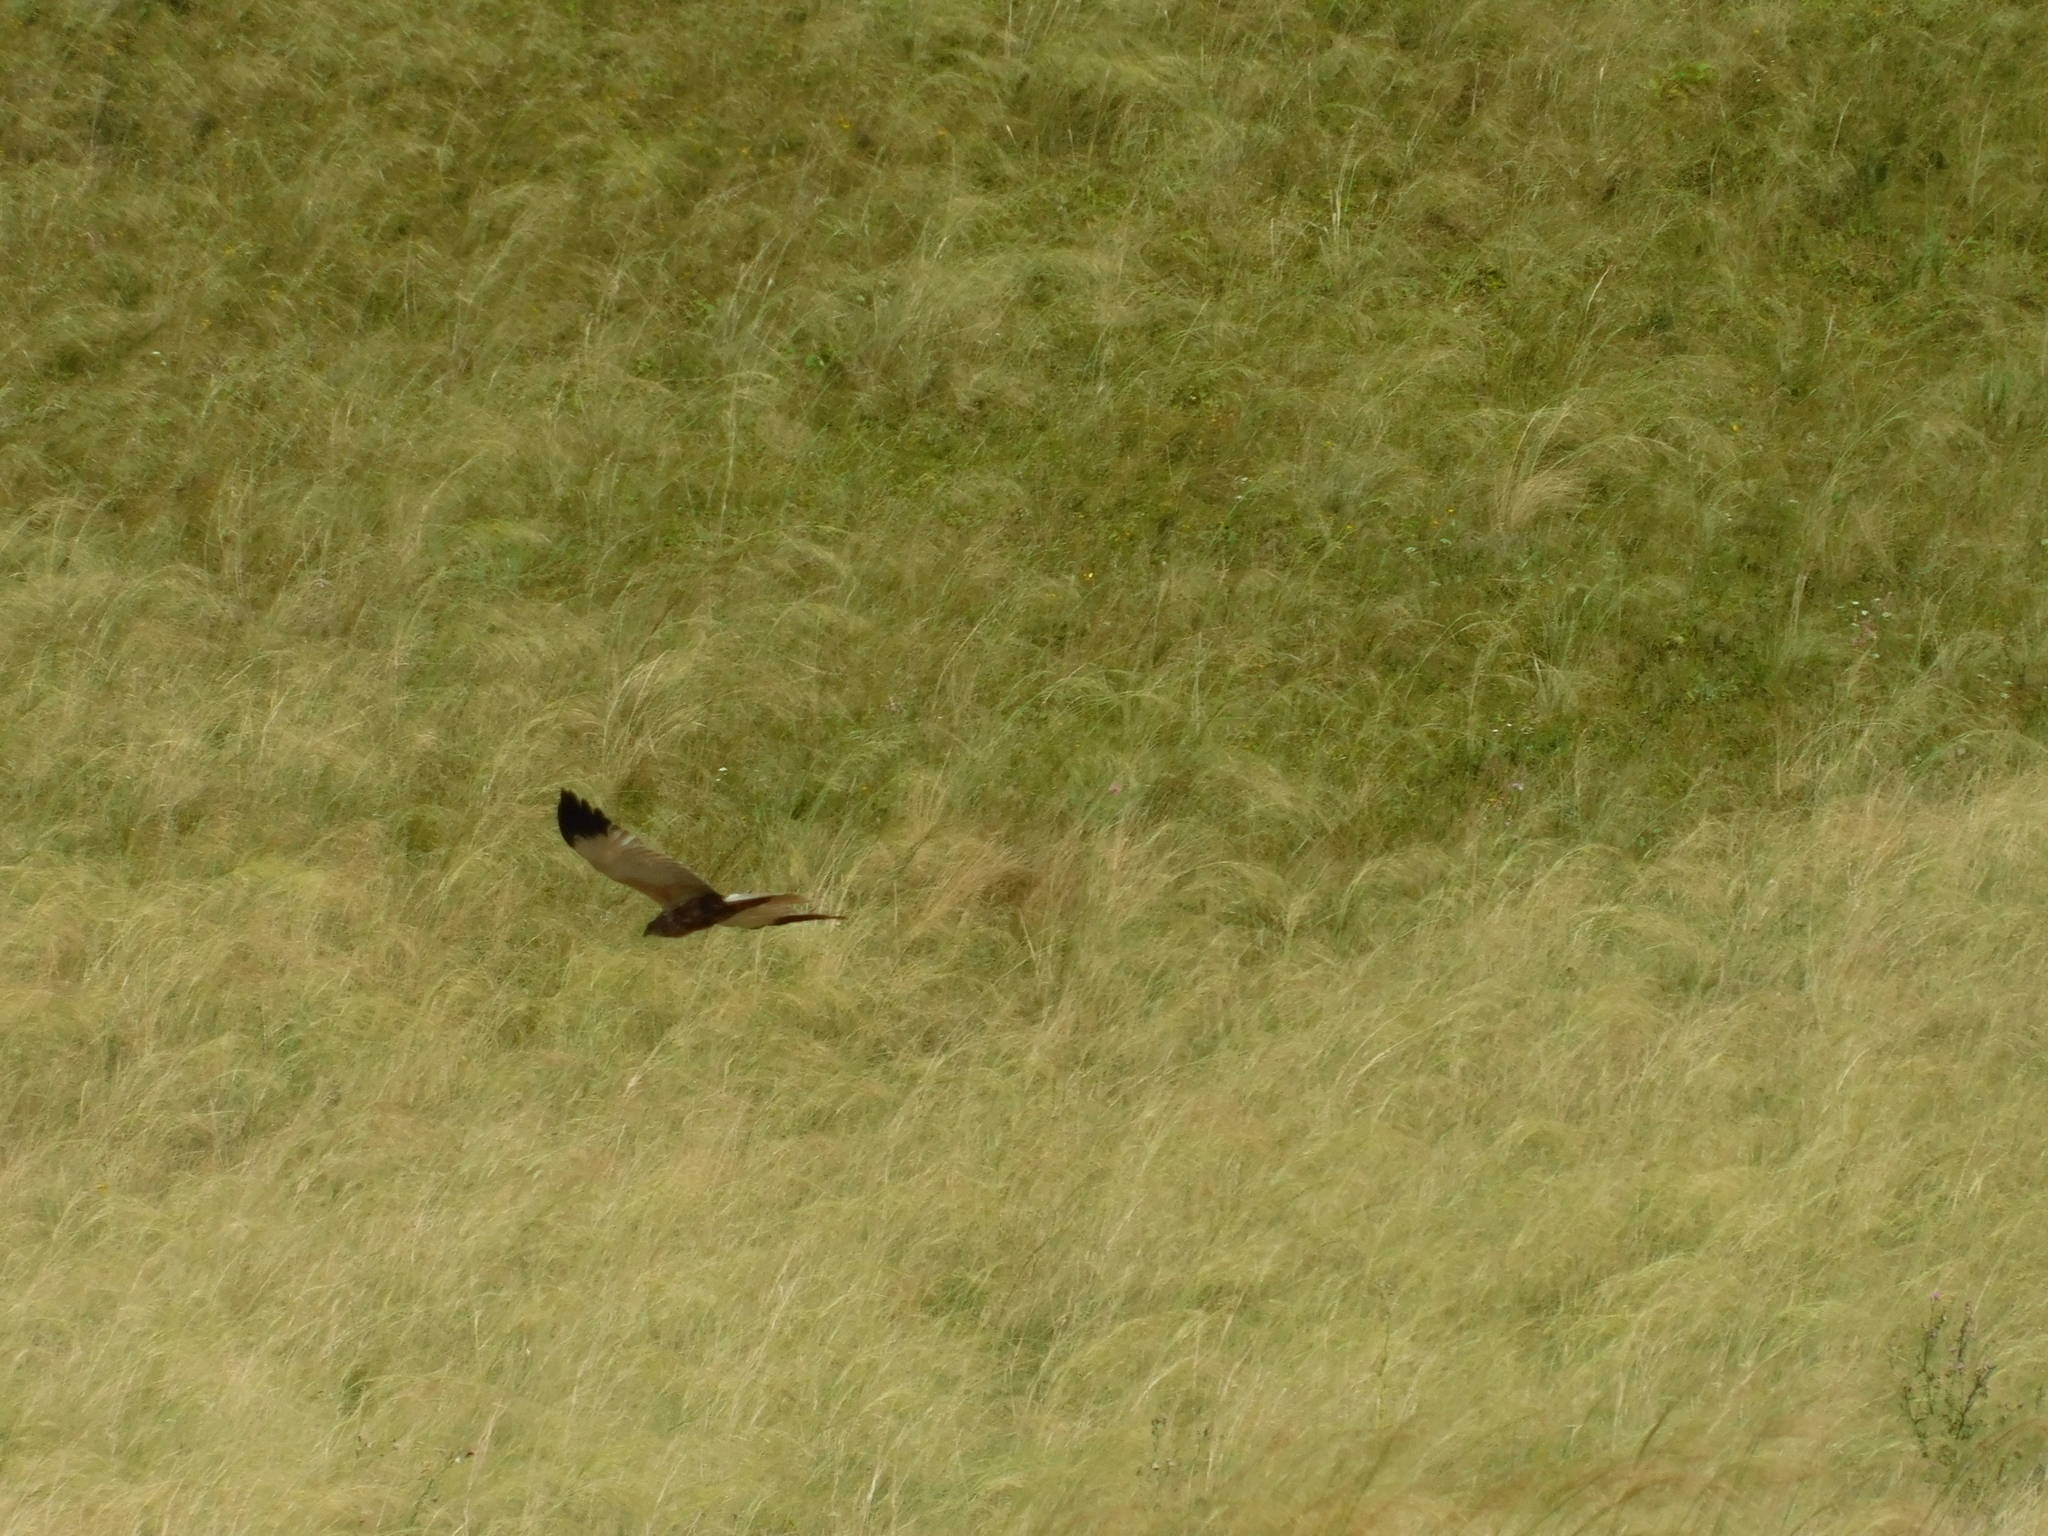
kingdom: Animalia
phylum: Chordata
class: Aves
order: Accipitriformes
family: Accipitridae
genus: Circus
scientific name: Circus aeruginosus
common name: Western marsh harrier
